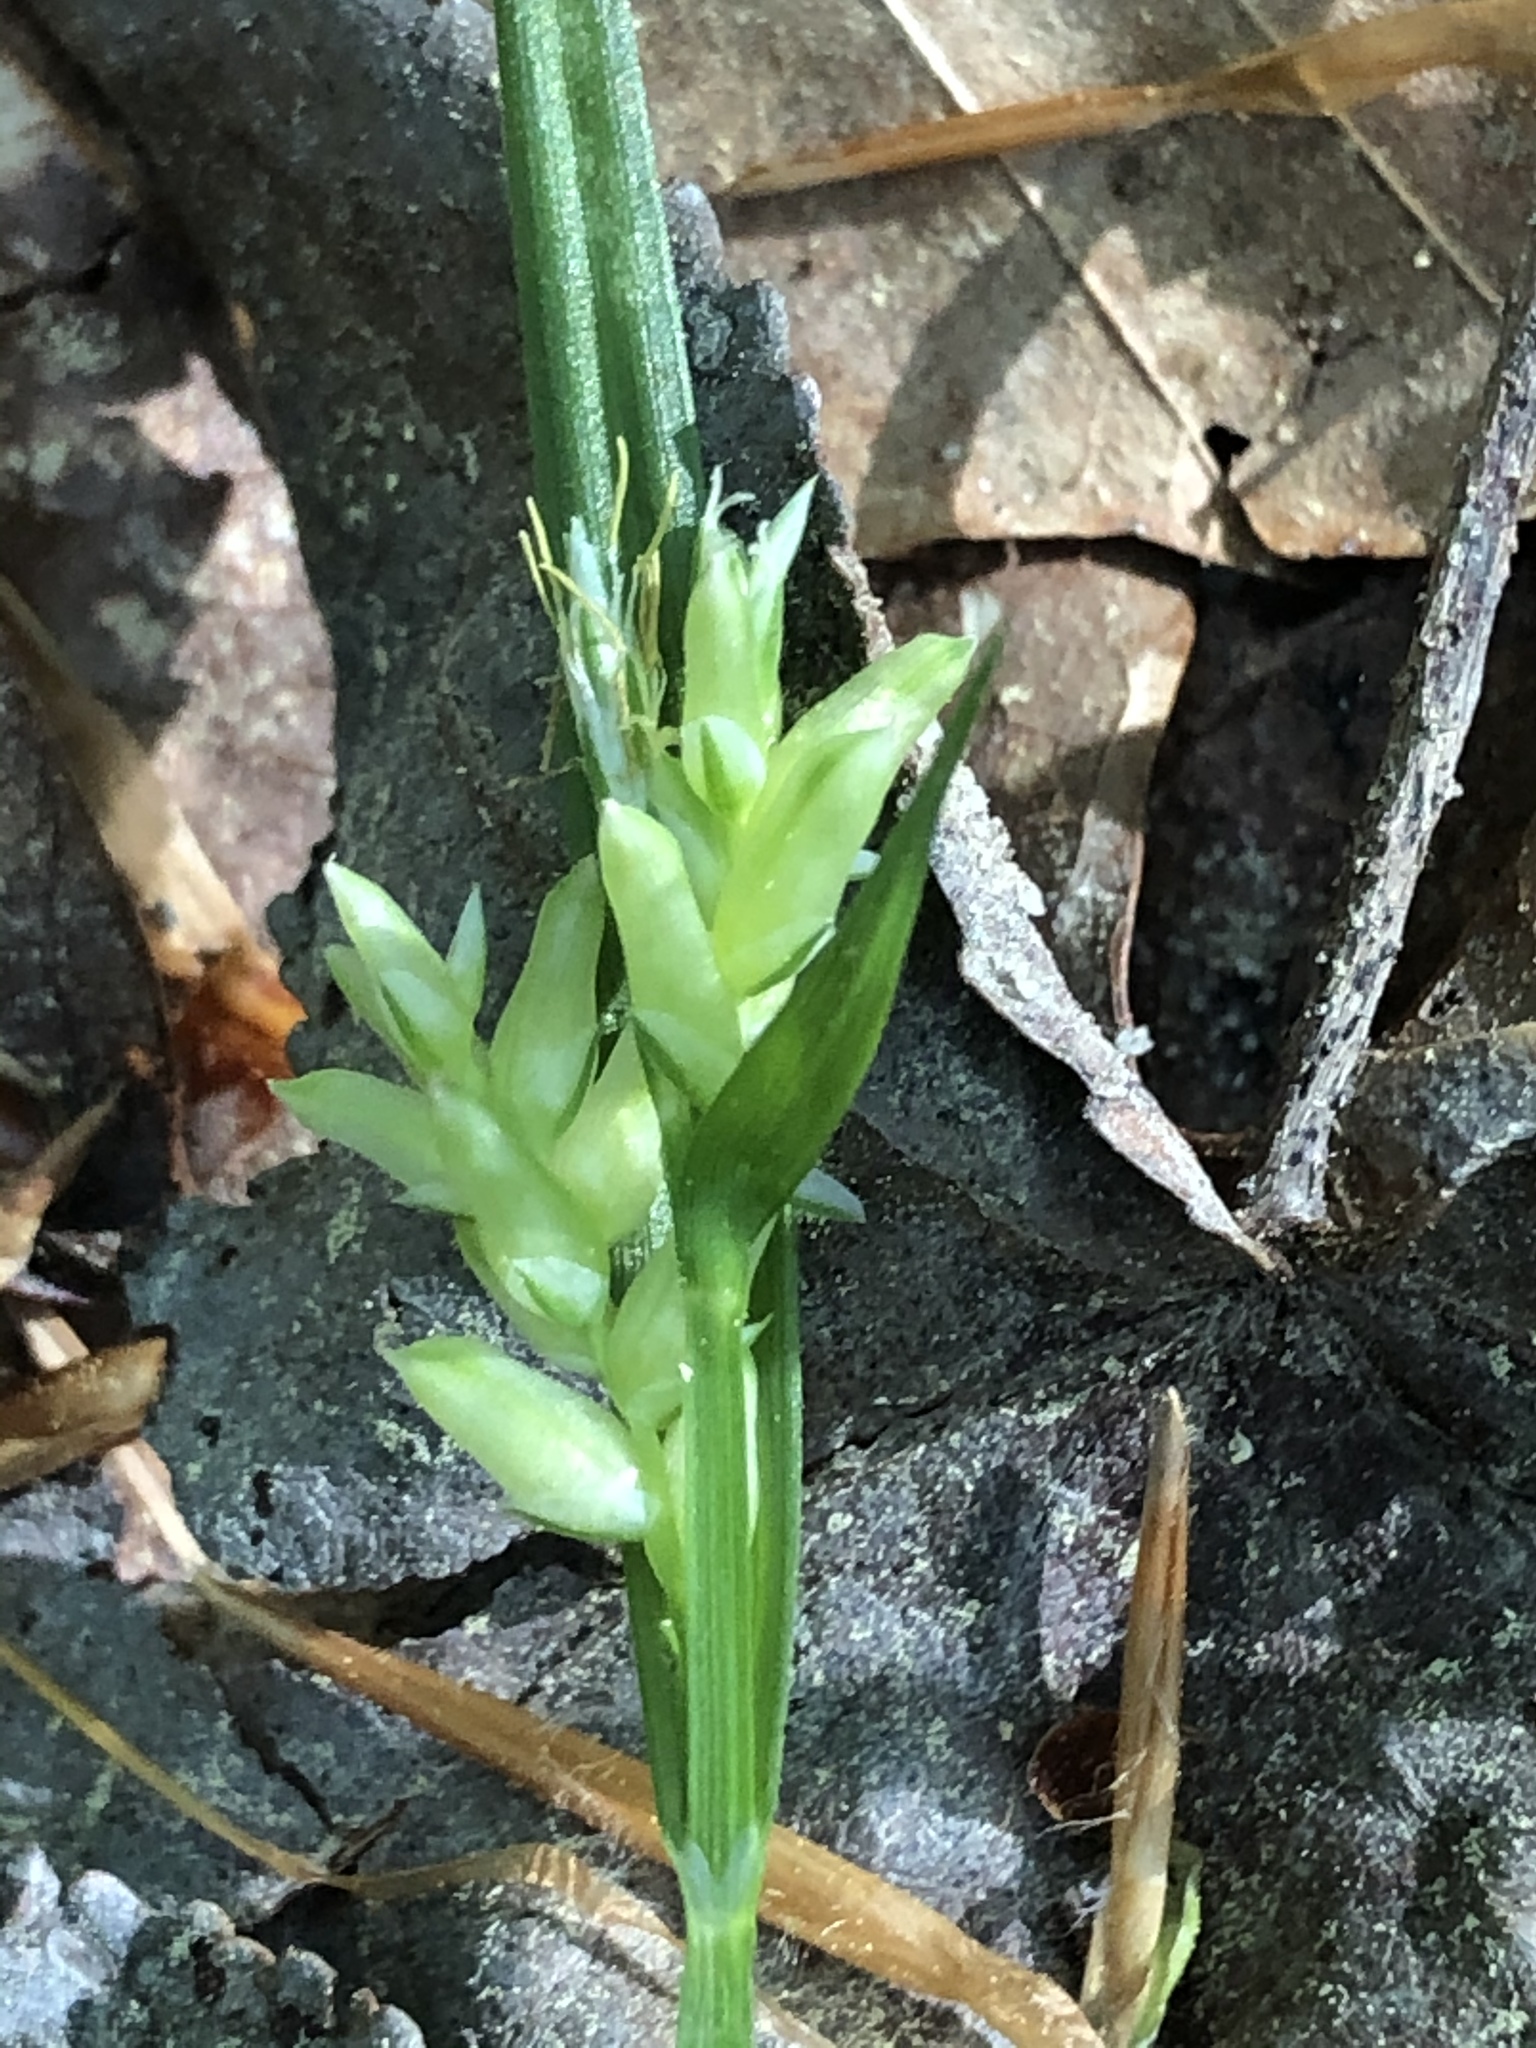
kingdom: Plantae
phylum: Tracheophyta
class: Liliopsida
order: Poales
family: Cyperaceae
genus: Carex
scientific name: Carex pigra
